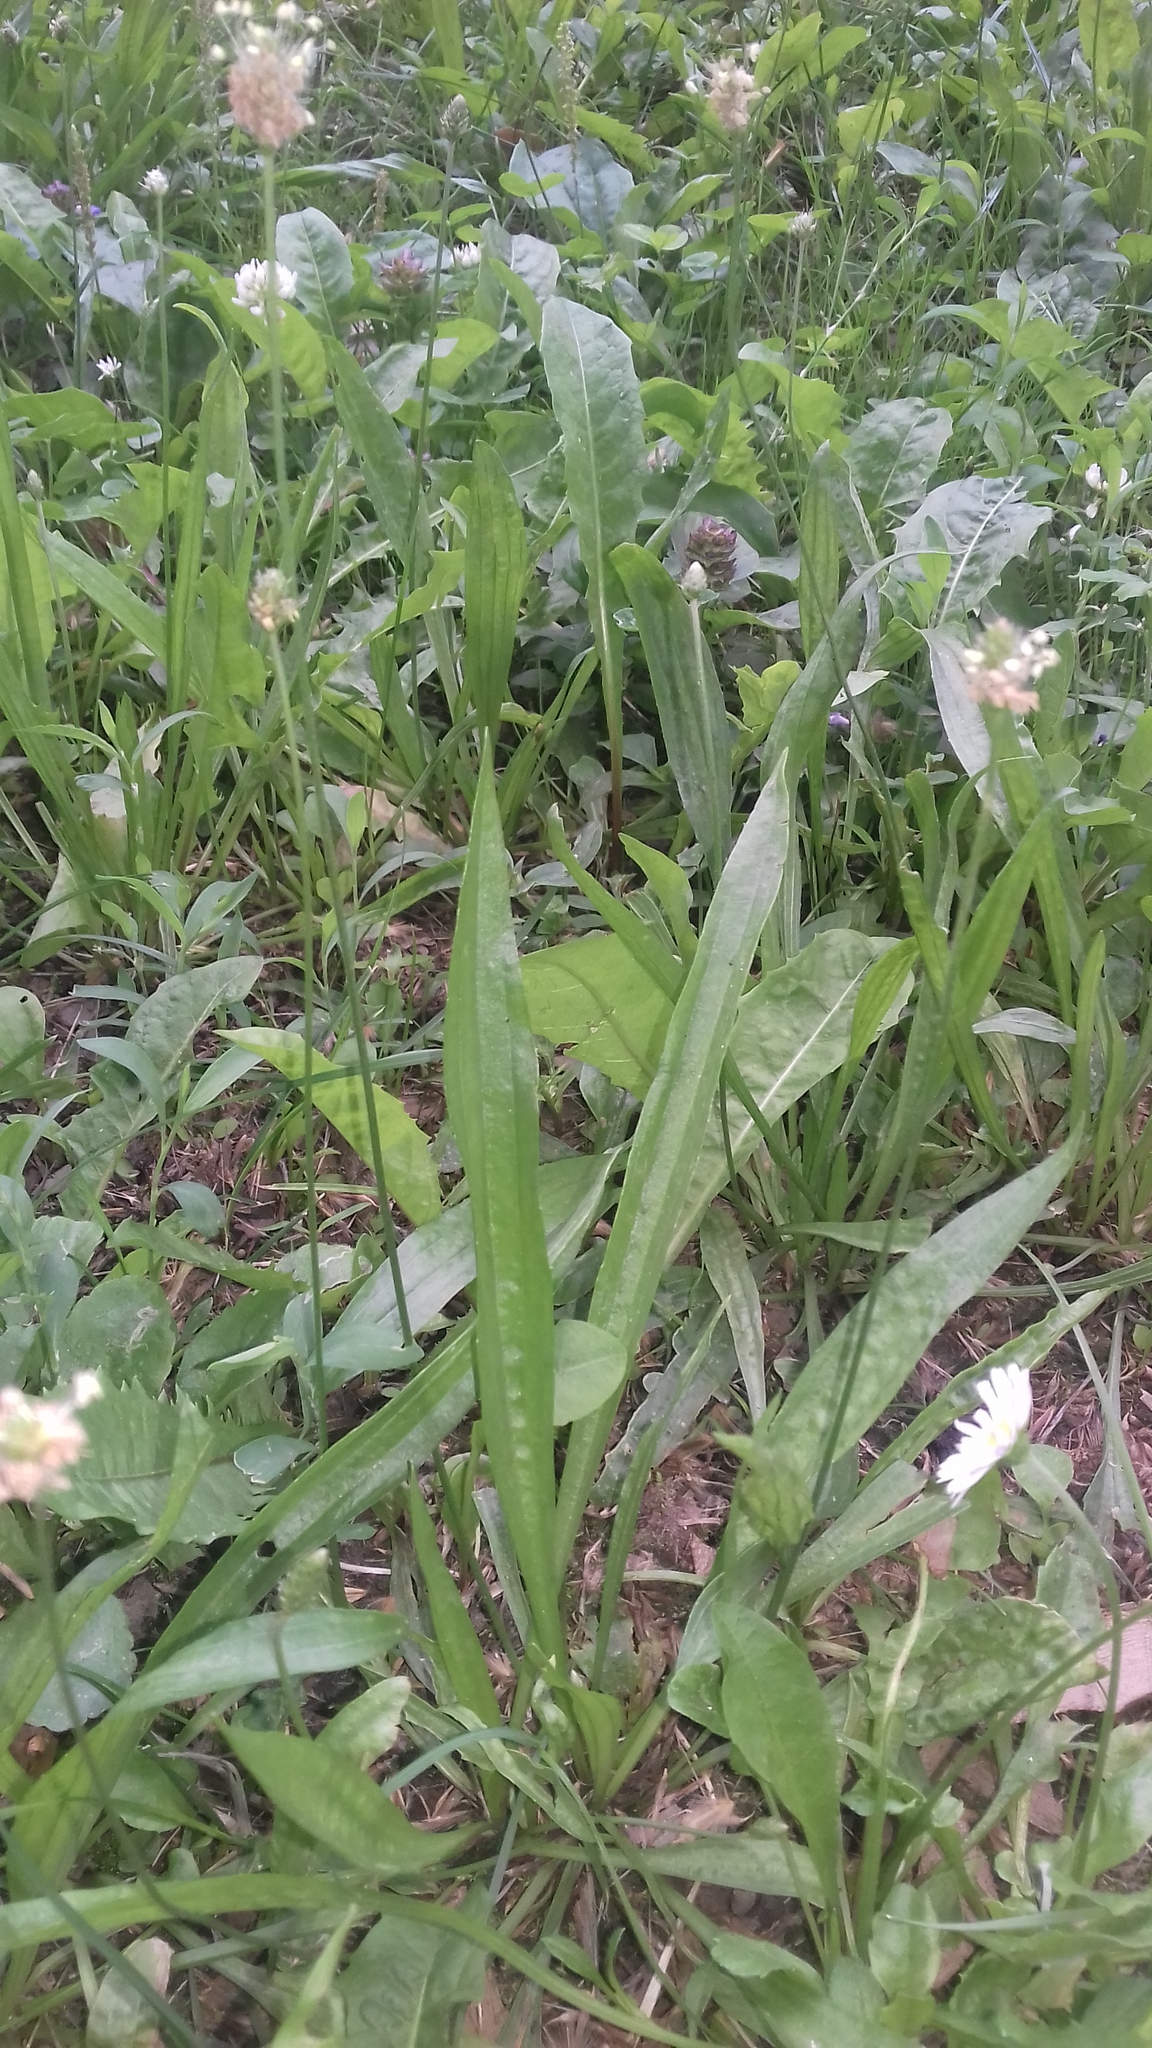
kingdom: Plantae
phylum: Tracheophyta
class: Magnoliopsida
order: Lamiales
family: Plantaginaceae
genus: Plantago
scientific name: Plantago lanceolata
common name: Ribwort plantain
